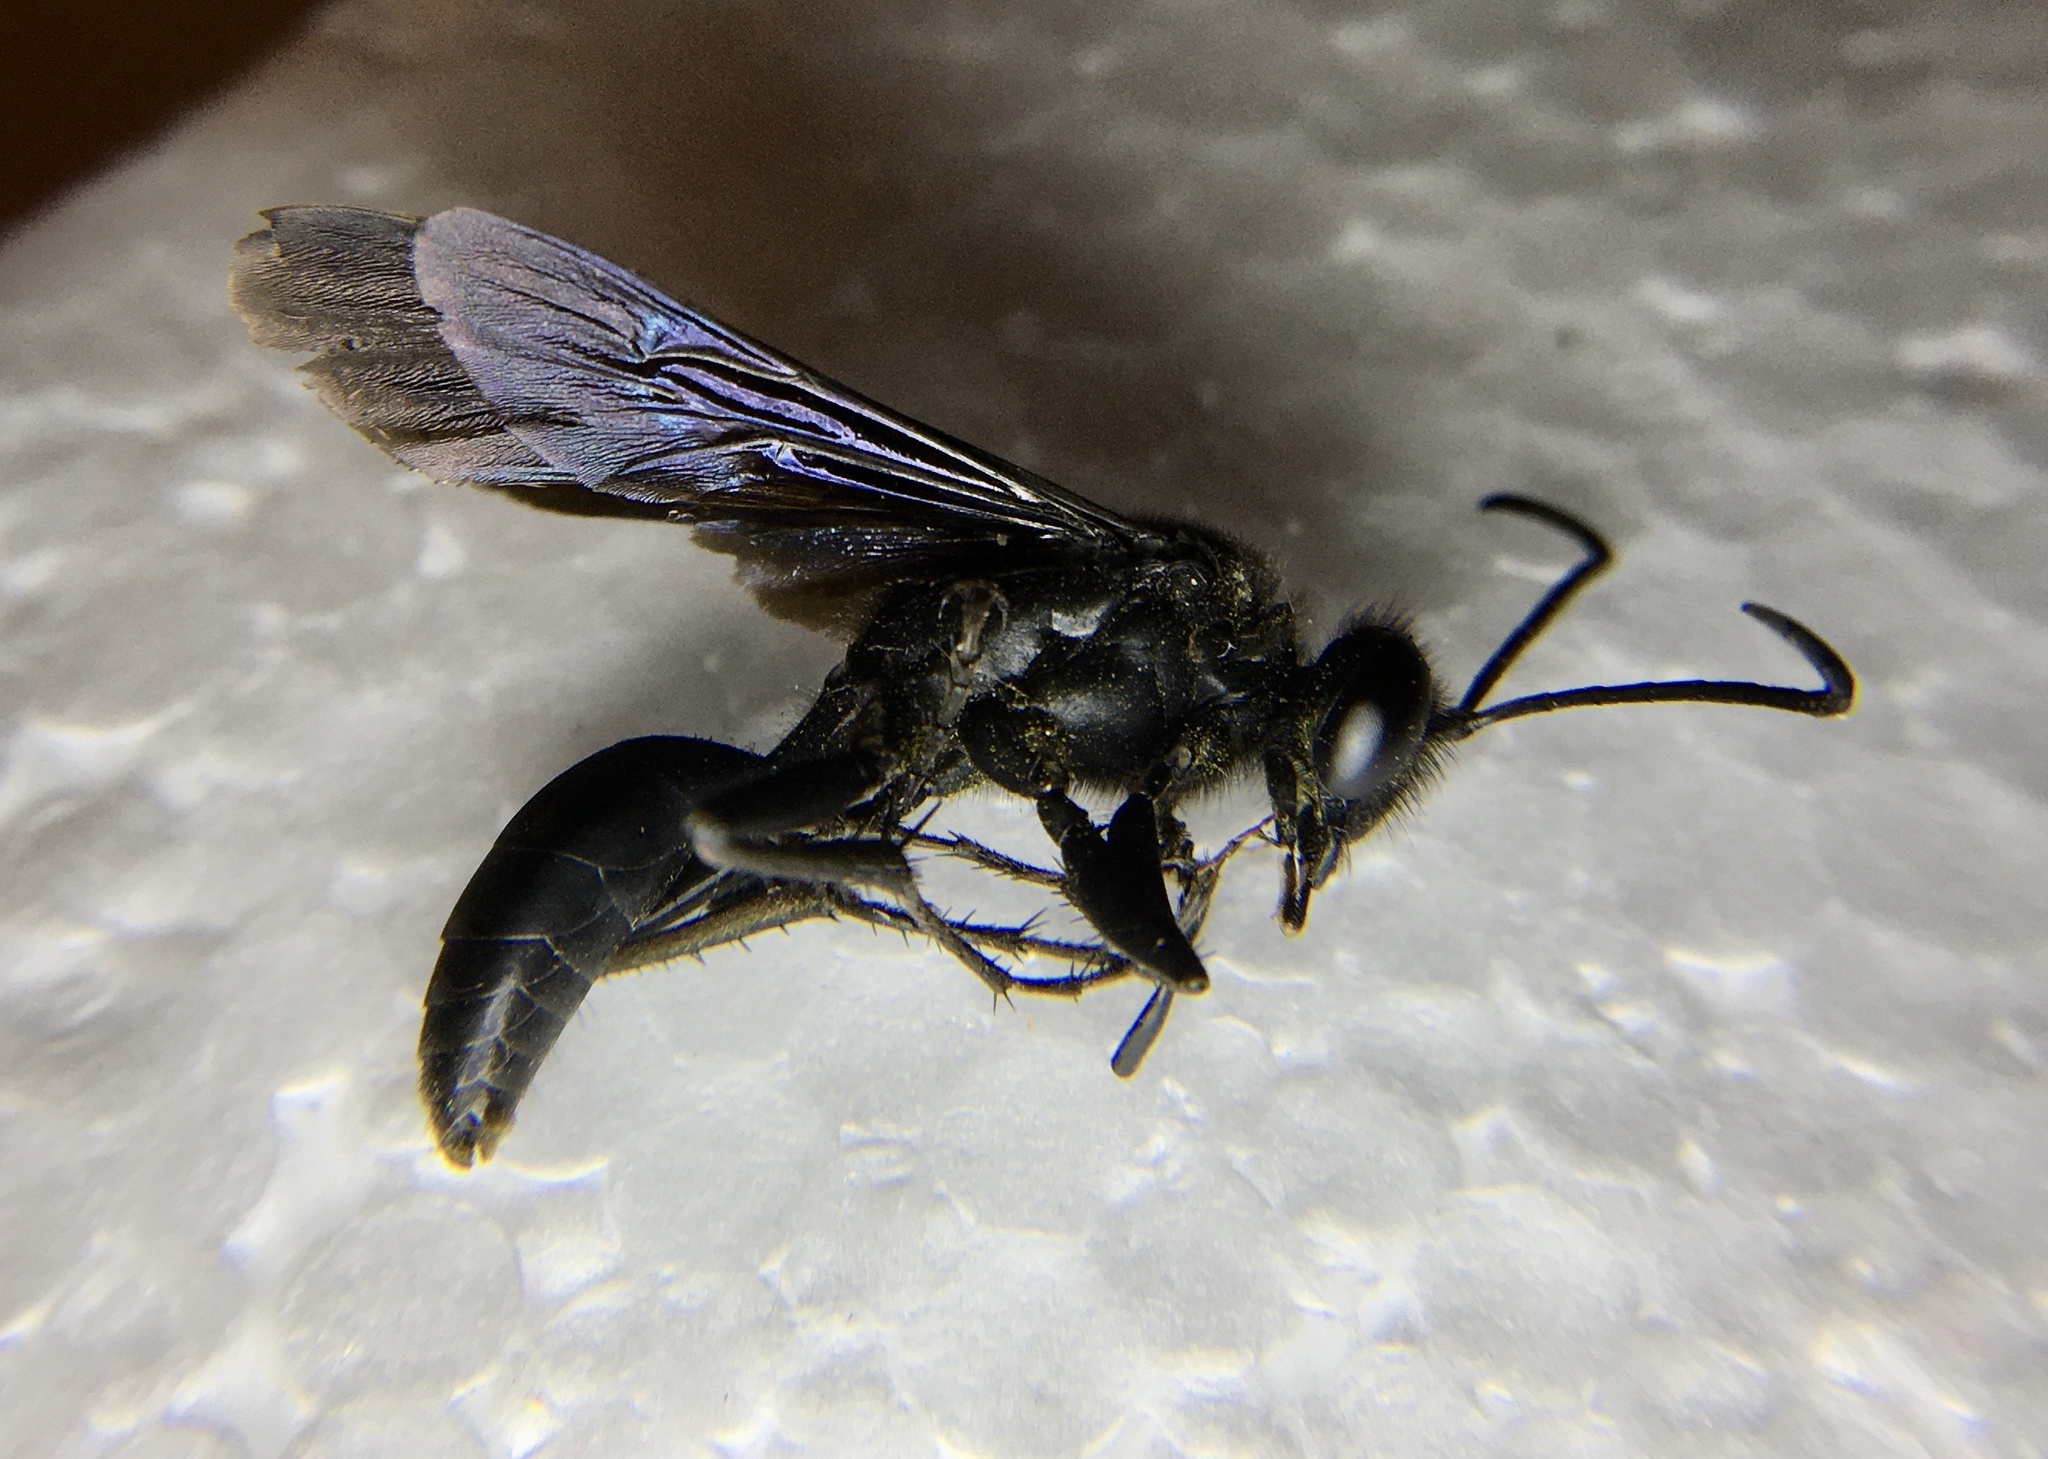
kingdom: Animalia
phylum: Arthropoda
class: Insecta
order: Hymenoptera
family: Sphecidae
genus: Sphex
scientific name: Sphex pensylvanicus
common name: Great black digger wasp
